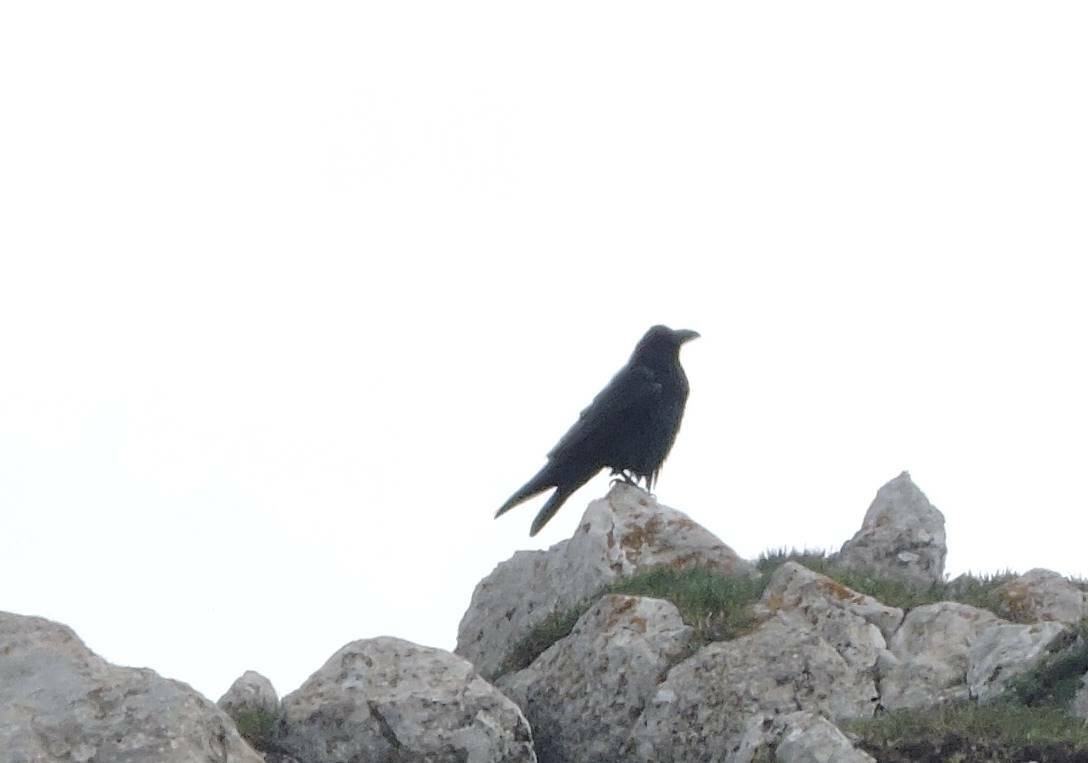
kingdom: Animalia
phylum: Chordata
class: Aves
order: Passeriformes
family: Corvidae
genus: Corvus
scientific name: Corvus corax
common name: Common raven
